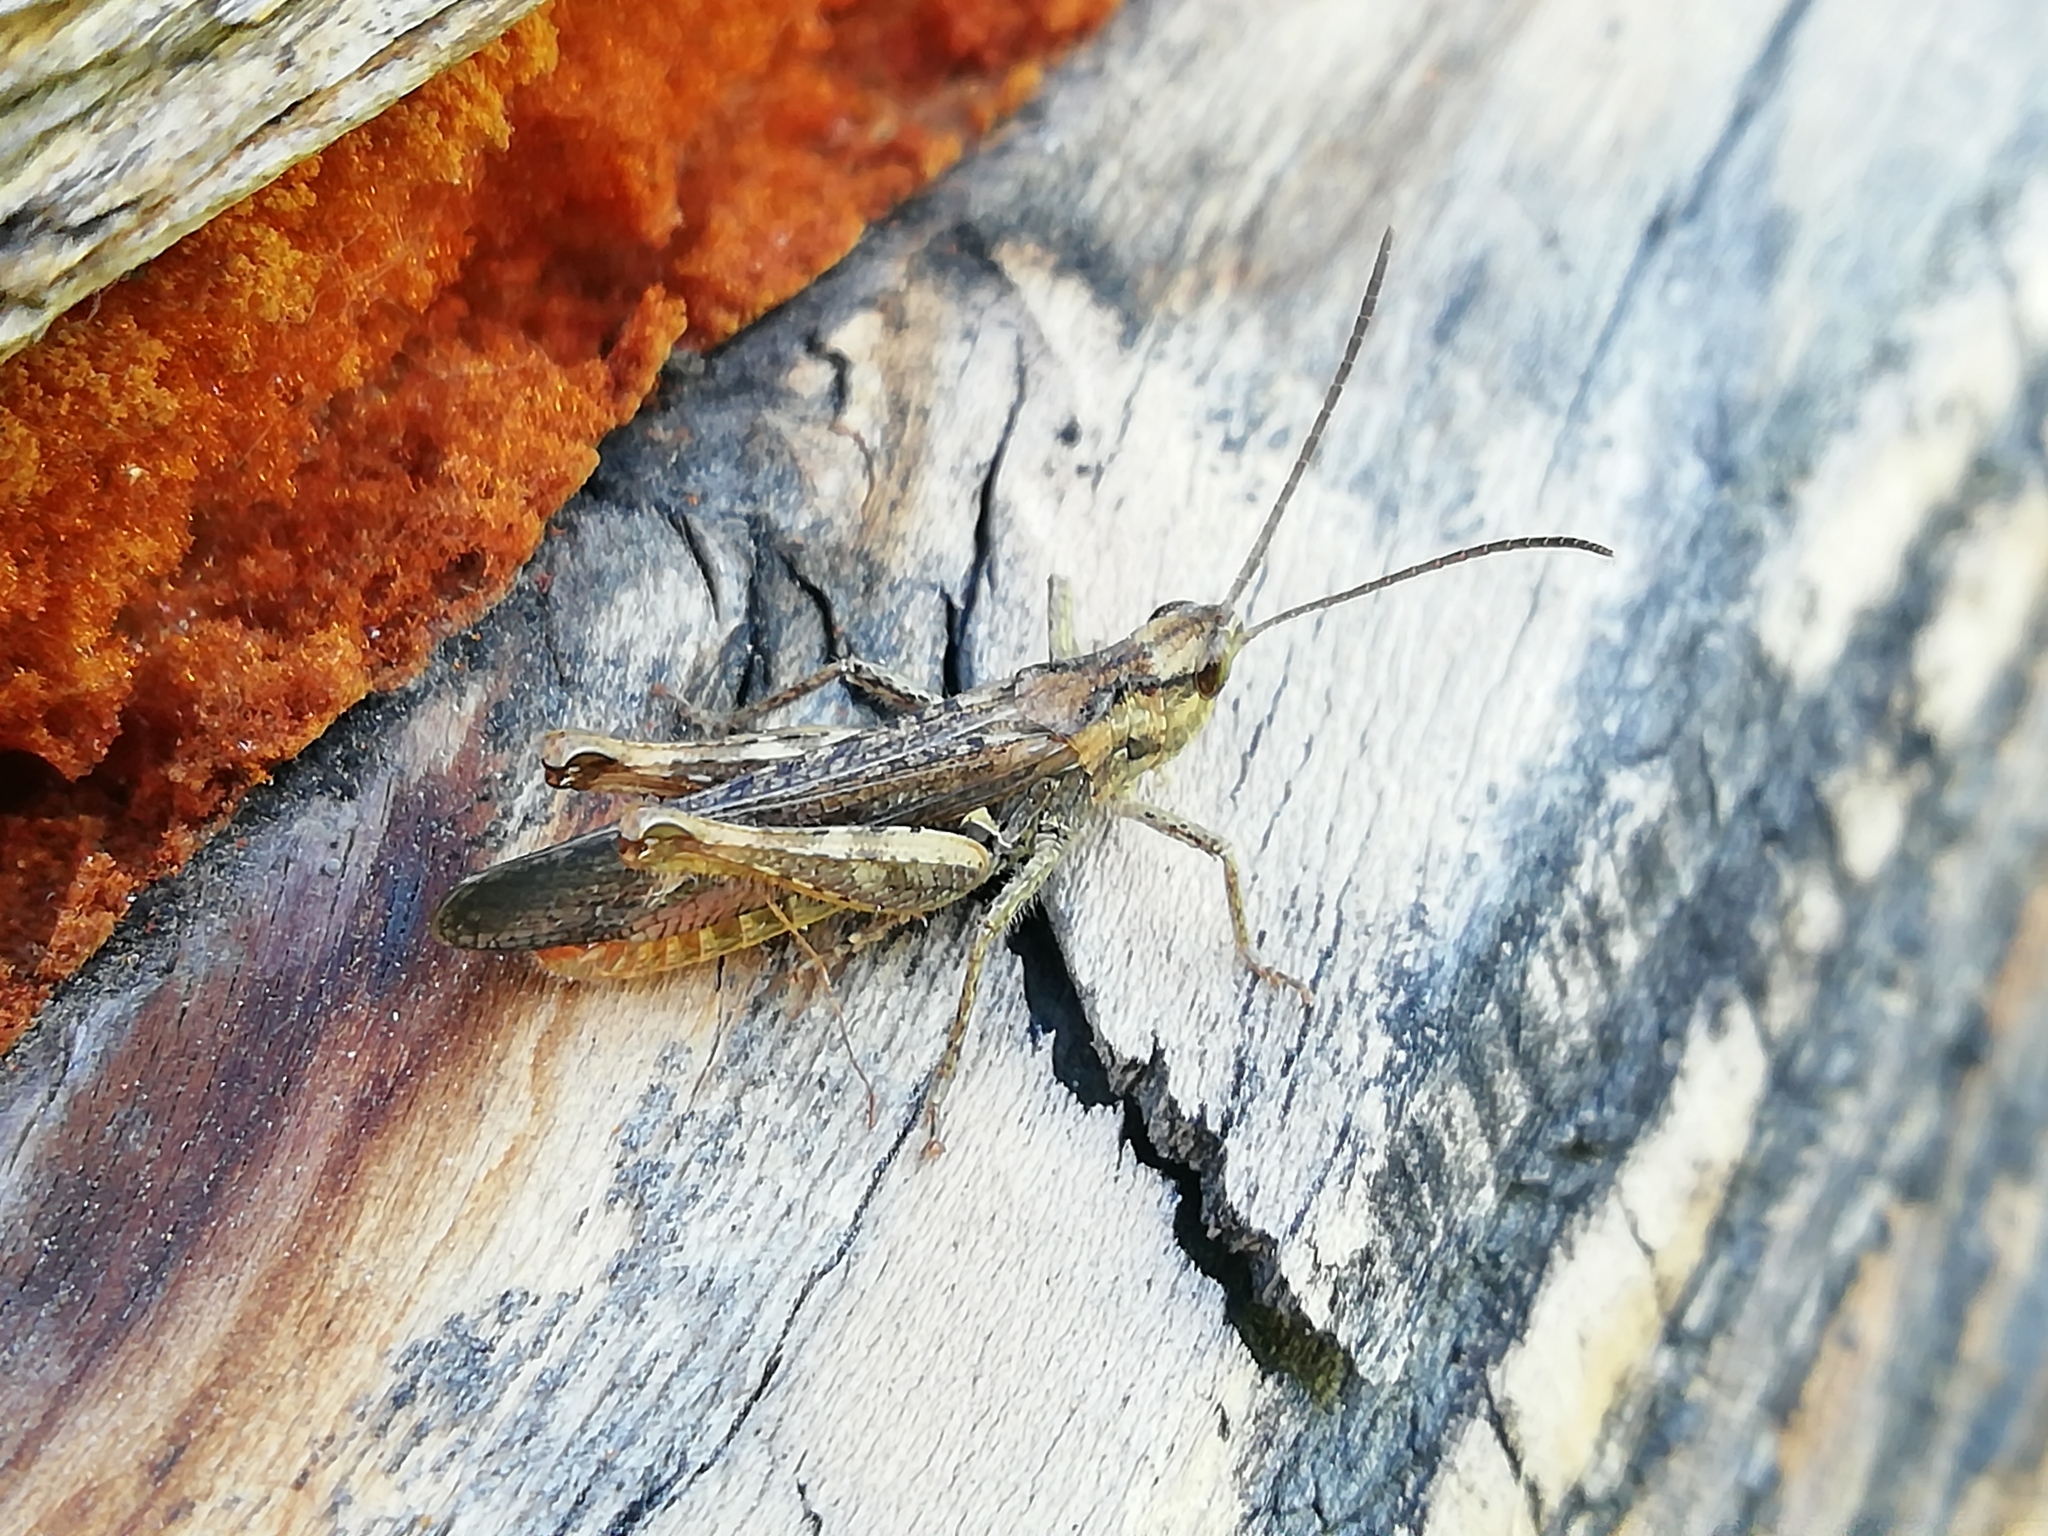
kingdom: Animalia
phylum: Arthropoda
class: Insecta
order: Orthoptera
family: Acrididae
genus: Chorthippus
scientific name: Chorthippus biguttulus
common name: Bow-winged grasshopper
